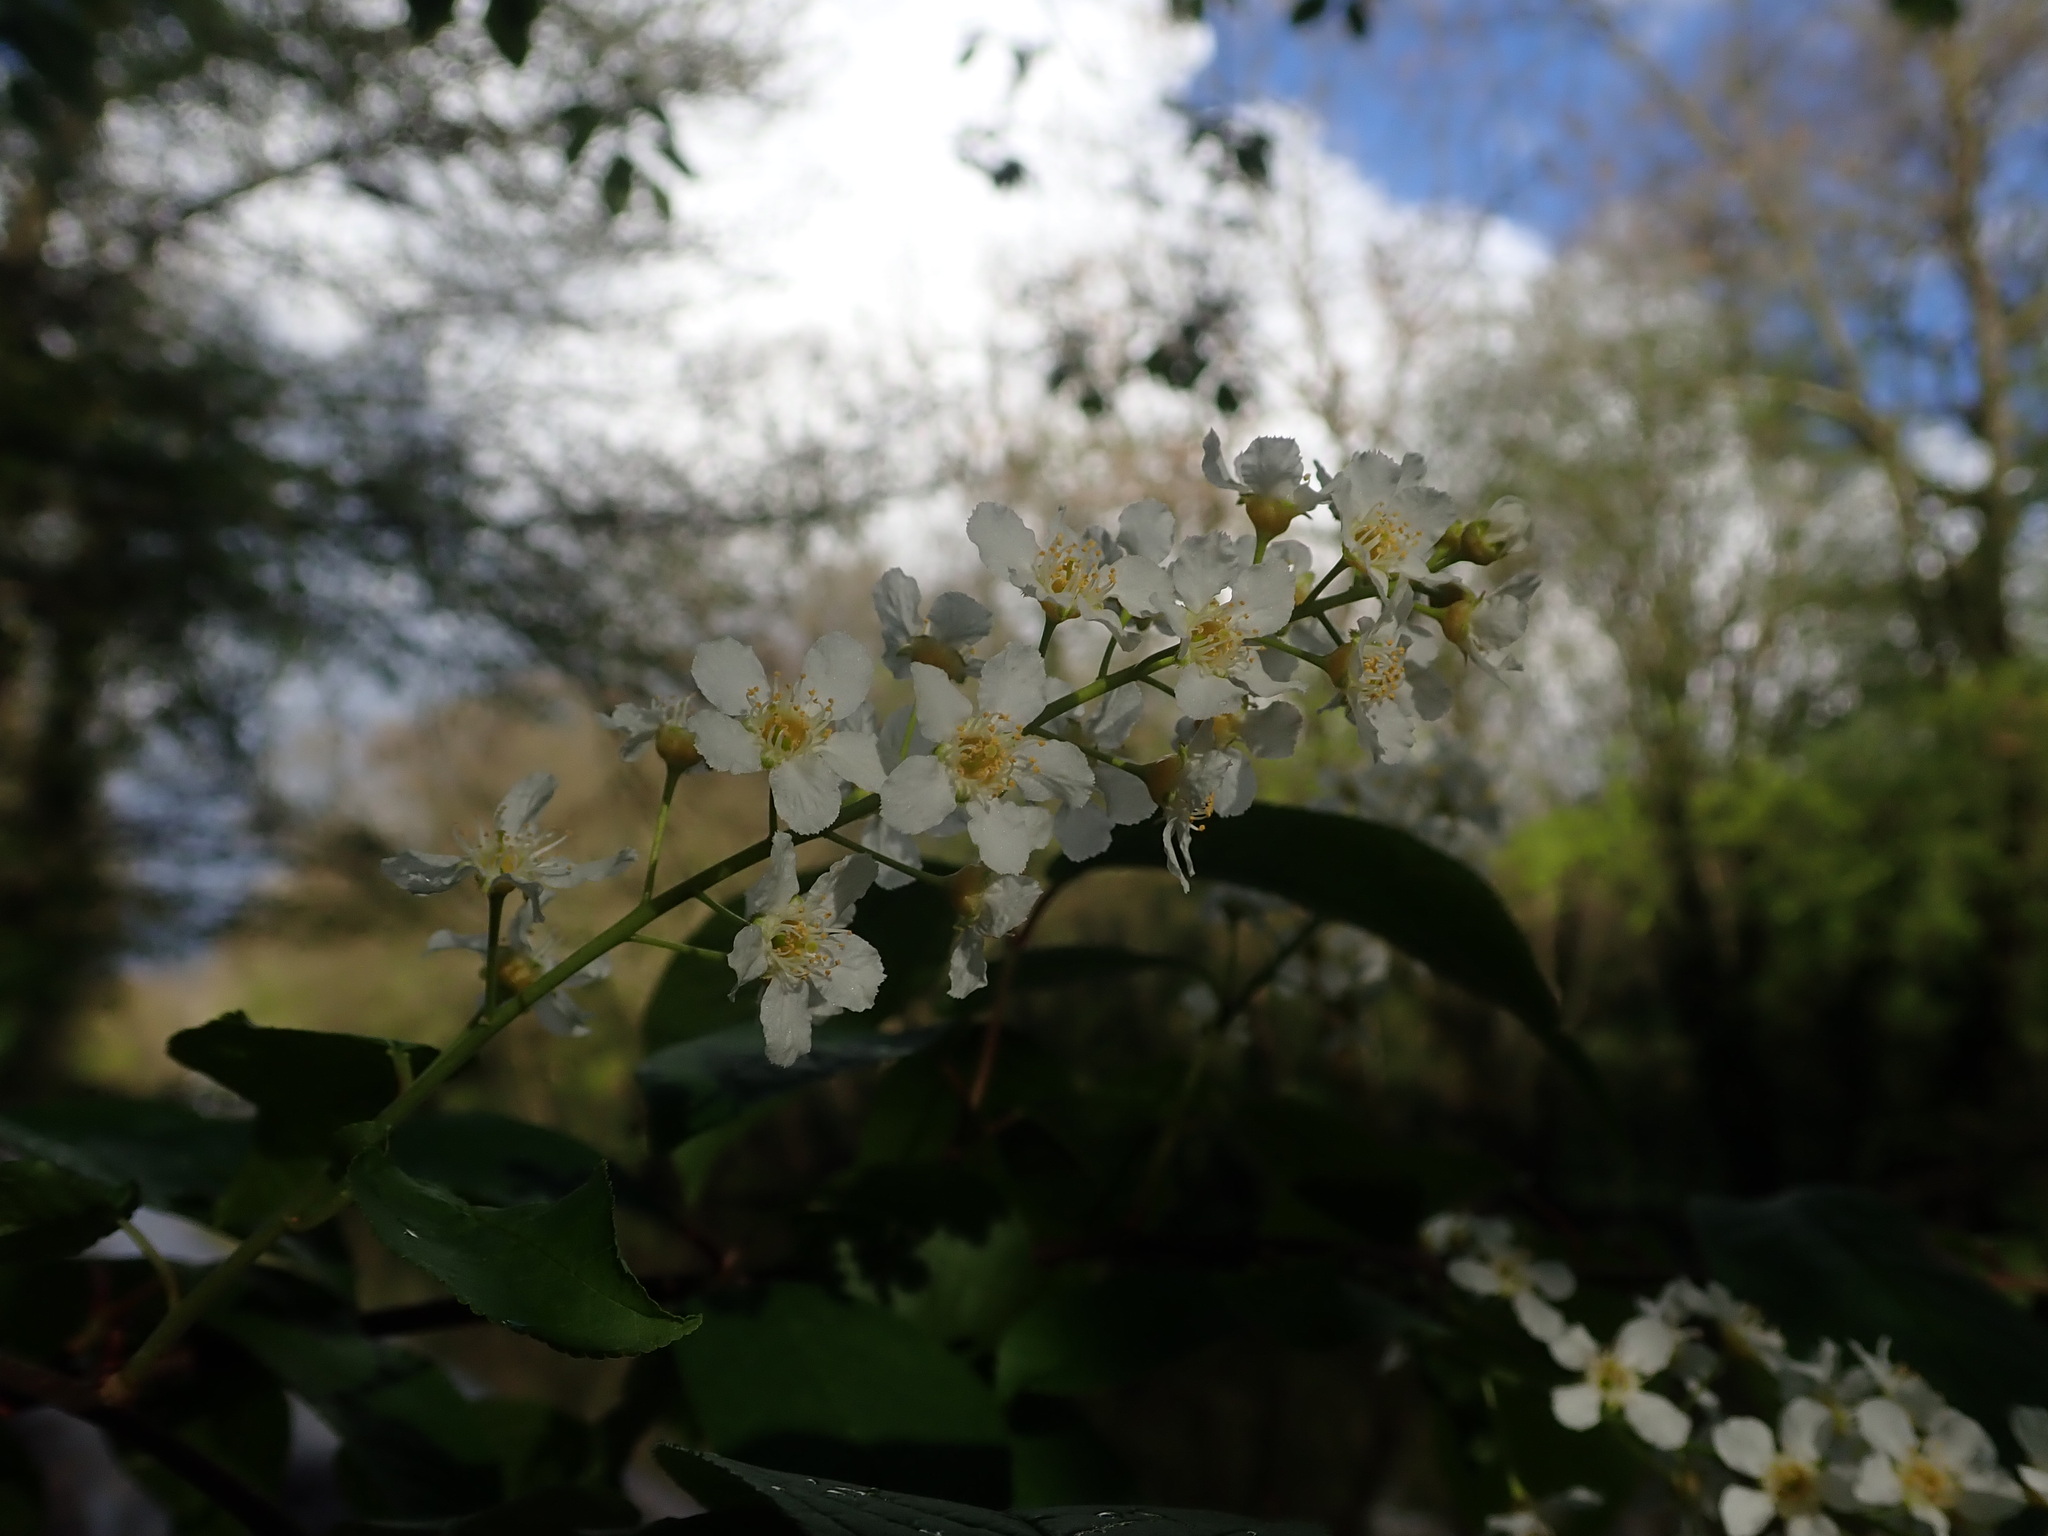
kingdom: Plantae
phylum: Tracheophyta
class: Magnoliopsida
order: Rosales
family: Rosaceae
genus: Prunus
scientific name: Prunus padus
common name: Bird cherry
